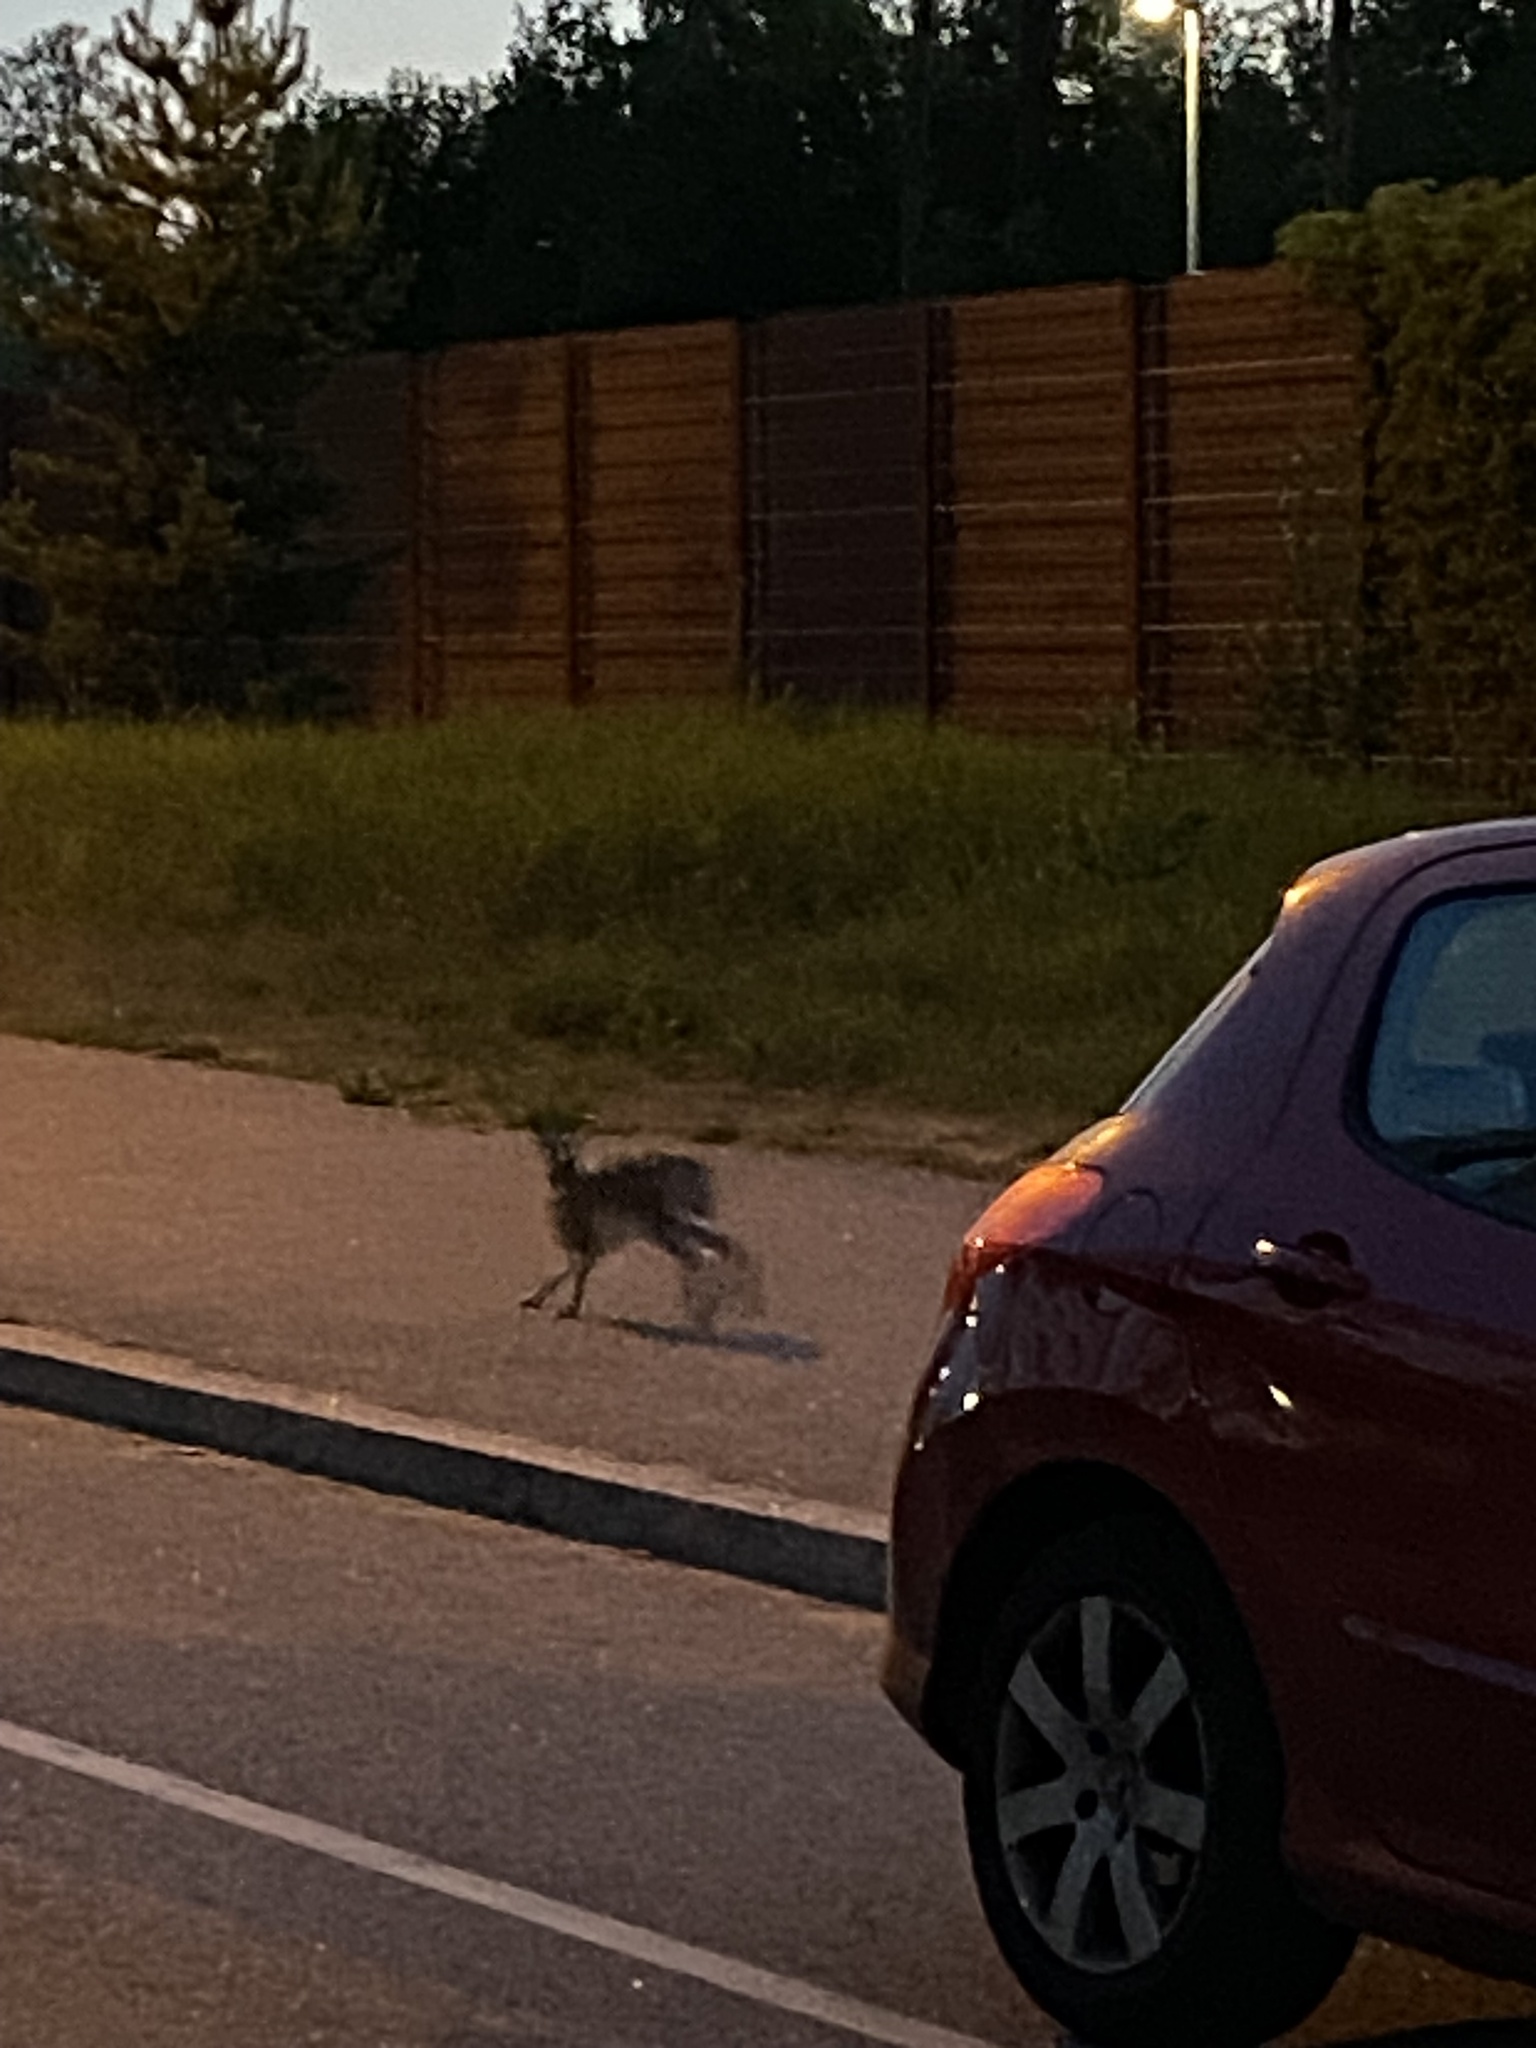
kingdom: Animalia
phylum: Chordata
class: Mammalia
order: Lagomorpha
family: Leporidae
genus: Lepus
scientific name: Lepus europaeus
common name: European hare
